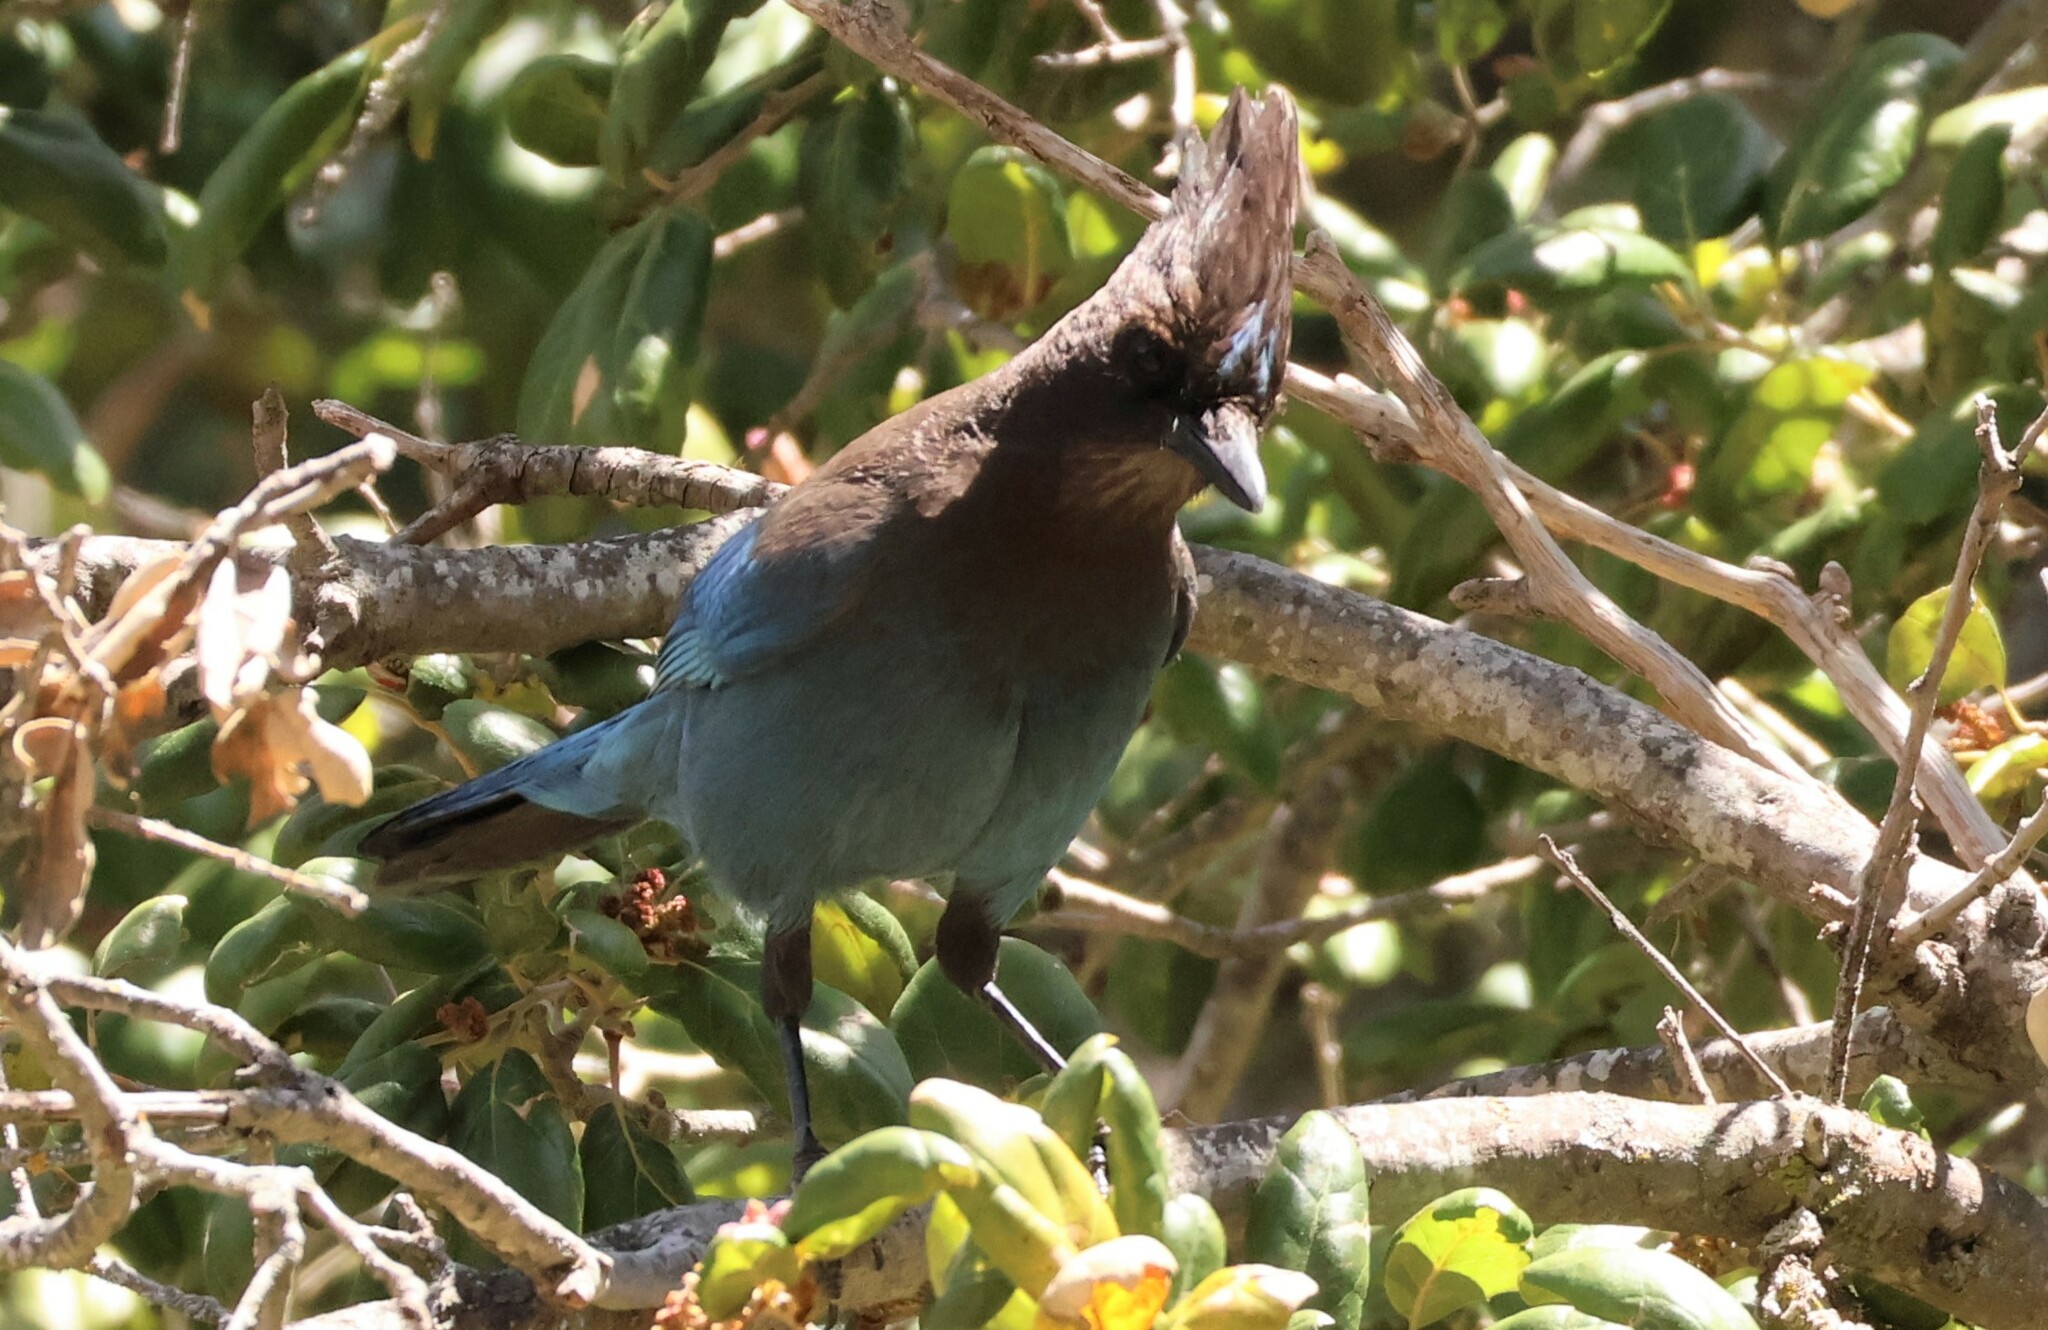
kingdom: Animalia
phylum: Chordata
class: Aves
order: Passeriformes
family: Corvidae
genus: Cyanocitta
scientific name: Cyanocitta stelleri
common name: Steller's jay
